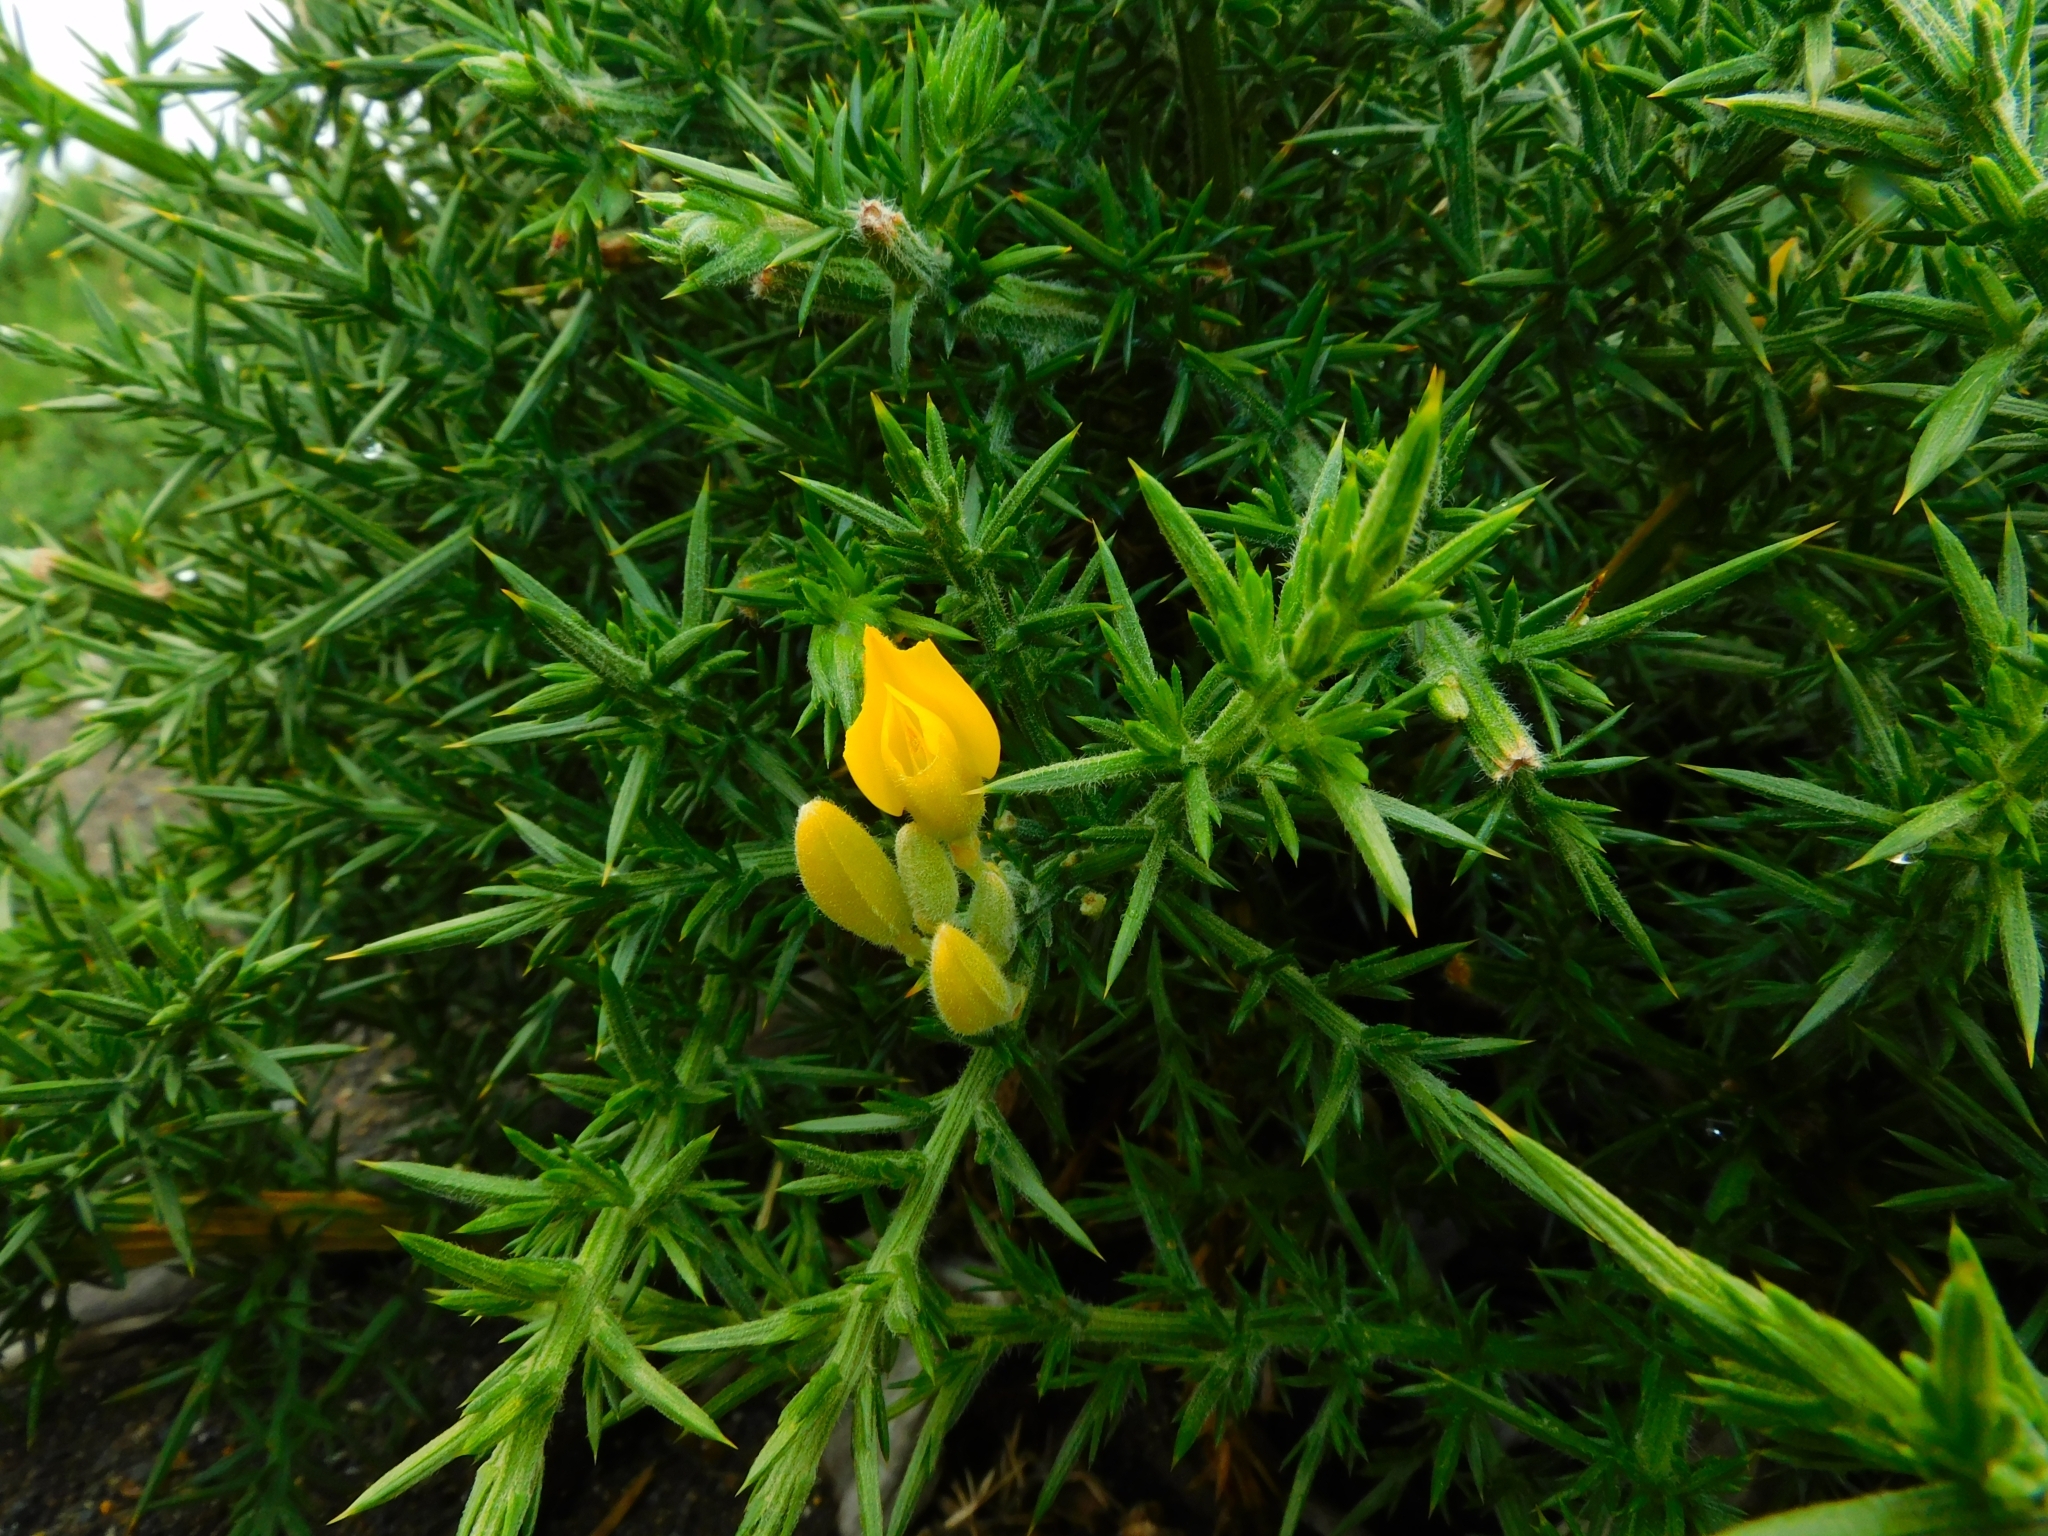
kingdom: Plantae
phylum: Tracheophyta
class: Magnoliopsida
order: Fabales
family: Fabaceae
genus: Ulex
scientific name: Ulex europaeus
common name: Common gorse
